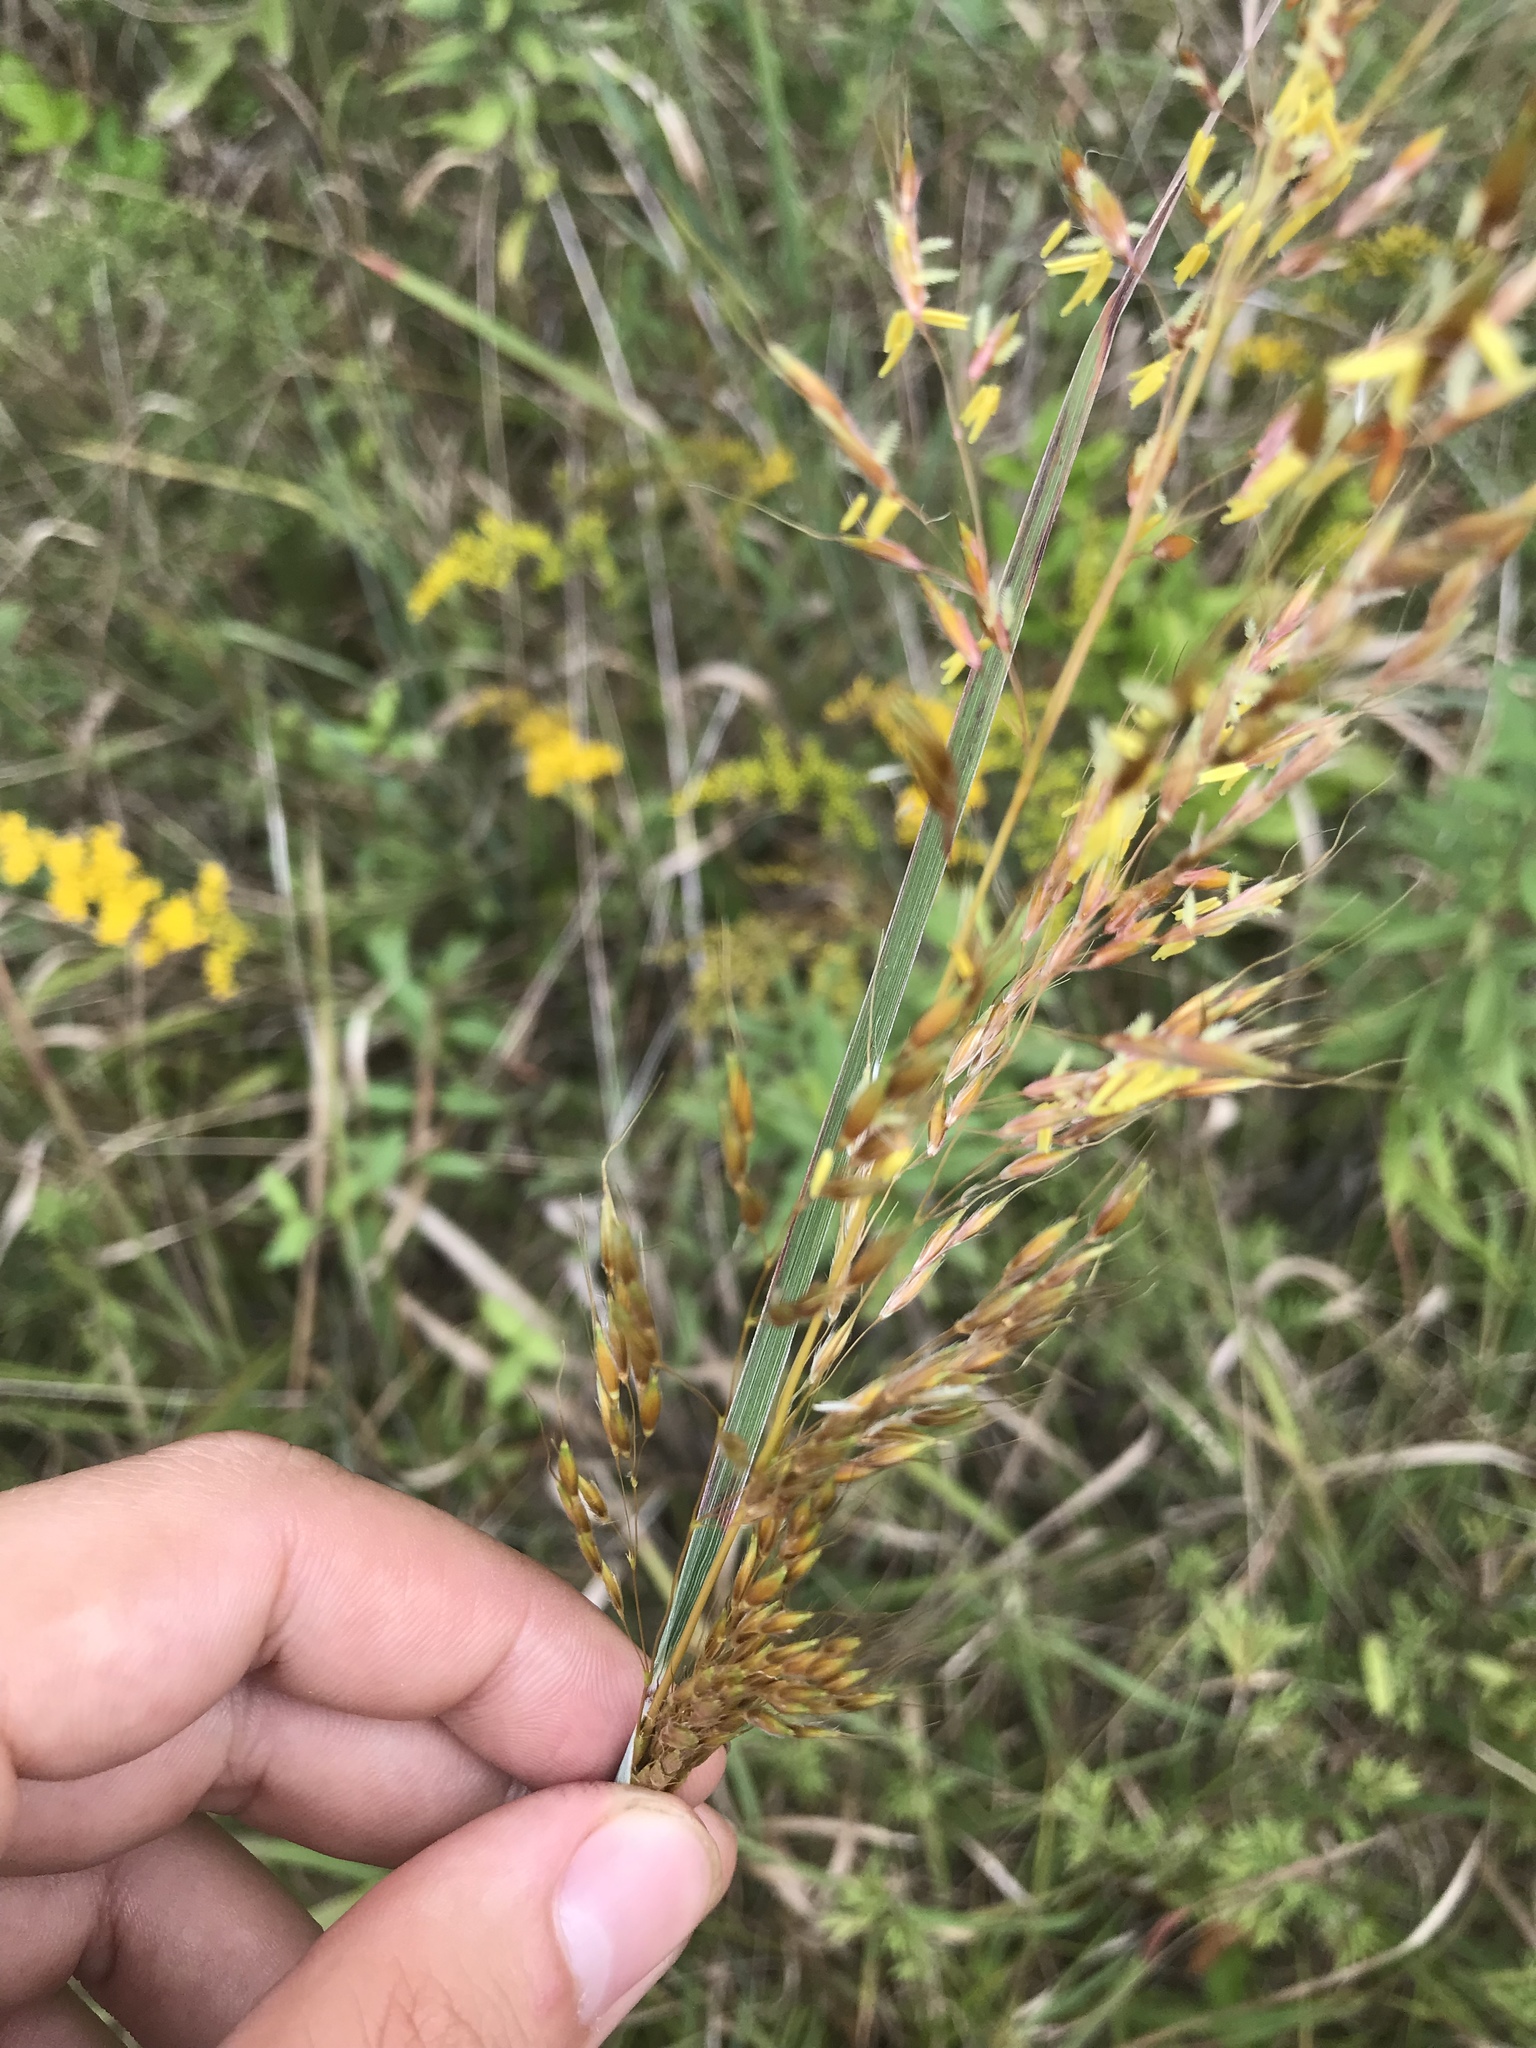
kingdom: Plantae
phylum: Tracheophyta
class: Liliopsida
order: Poales
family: Poaceae
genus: Sorghastrum
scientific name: Sorghastrum nutans
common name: Indian grass
